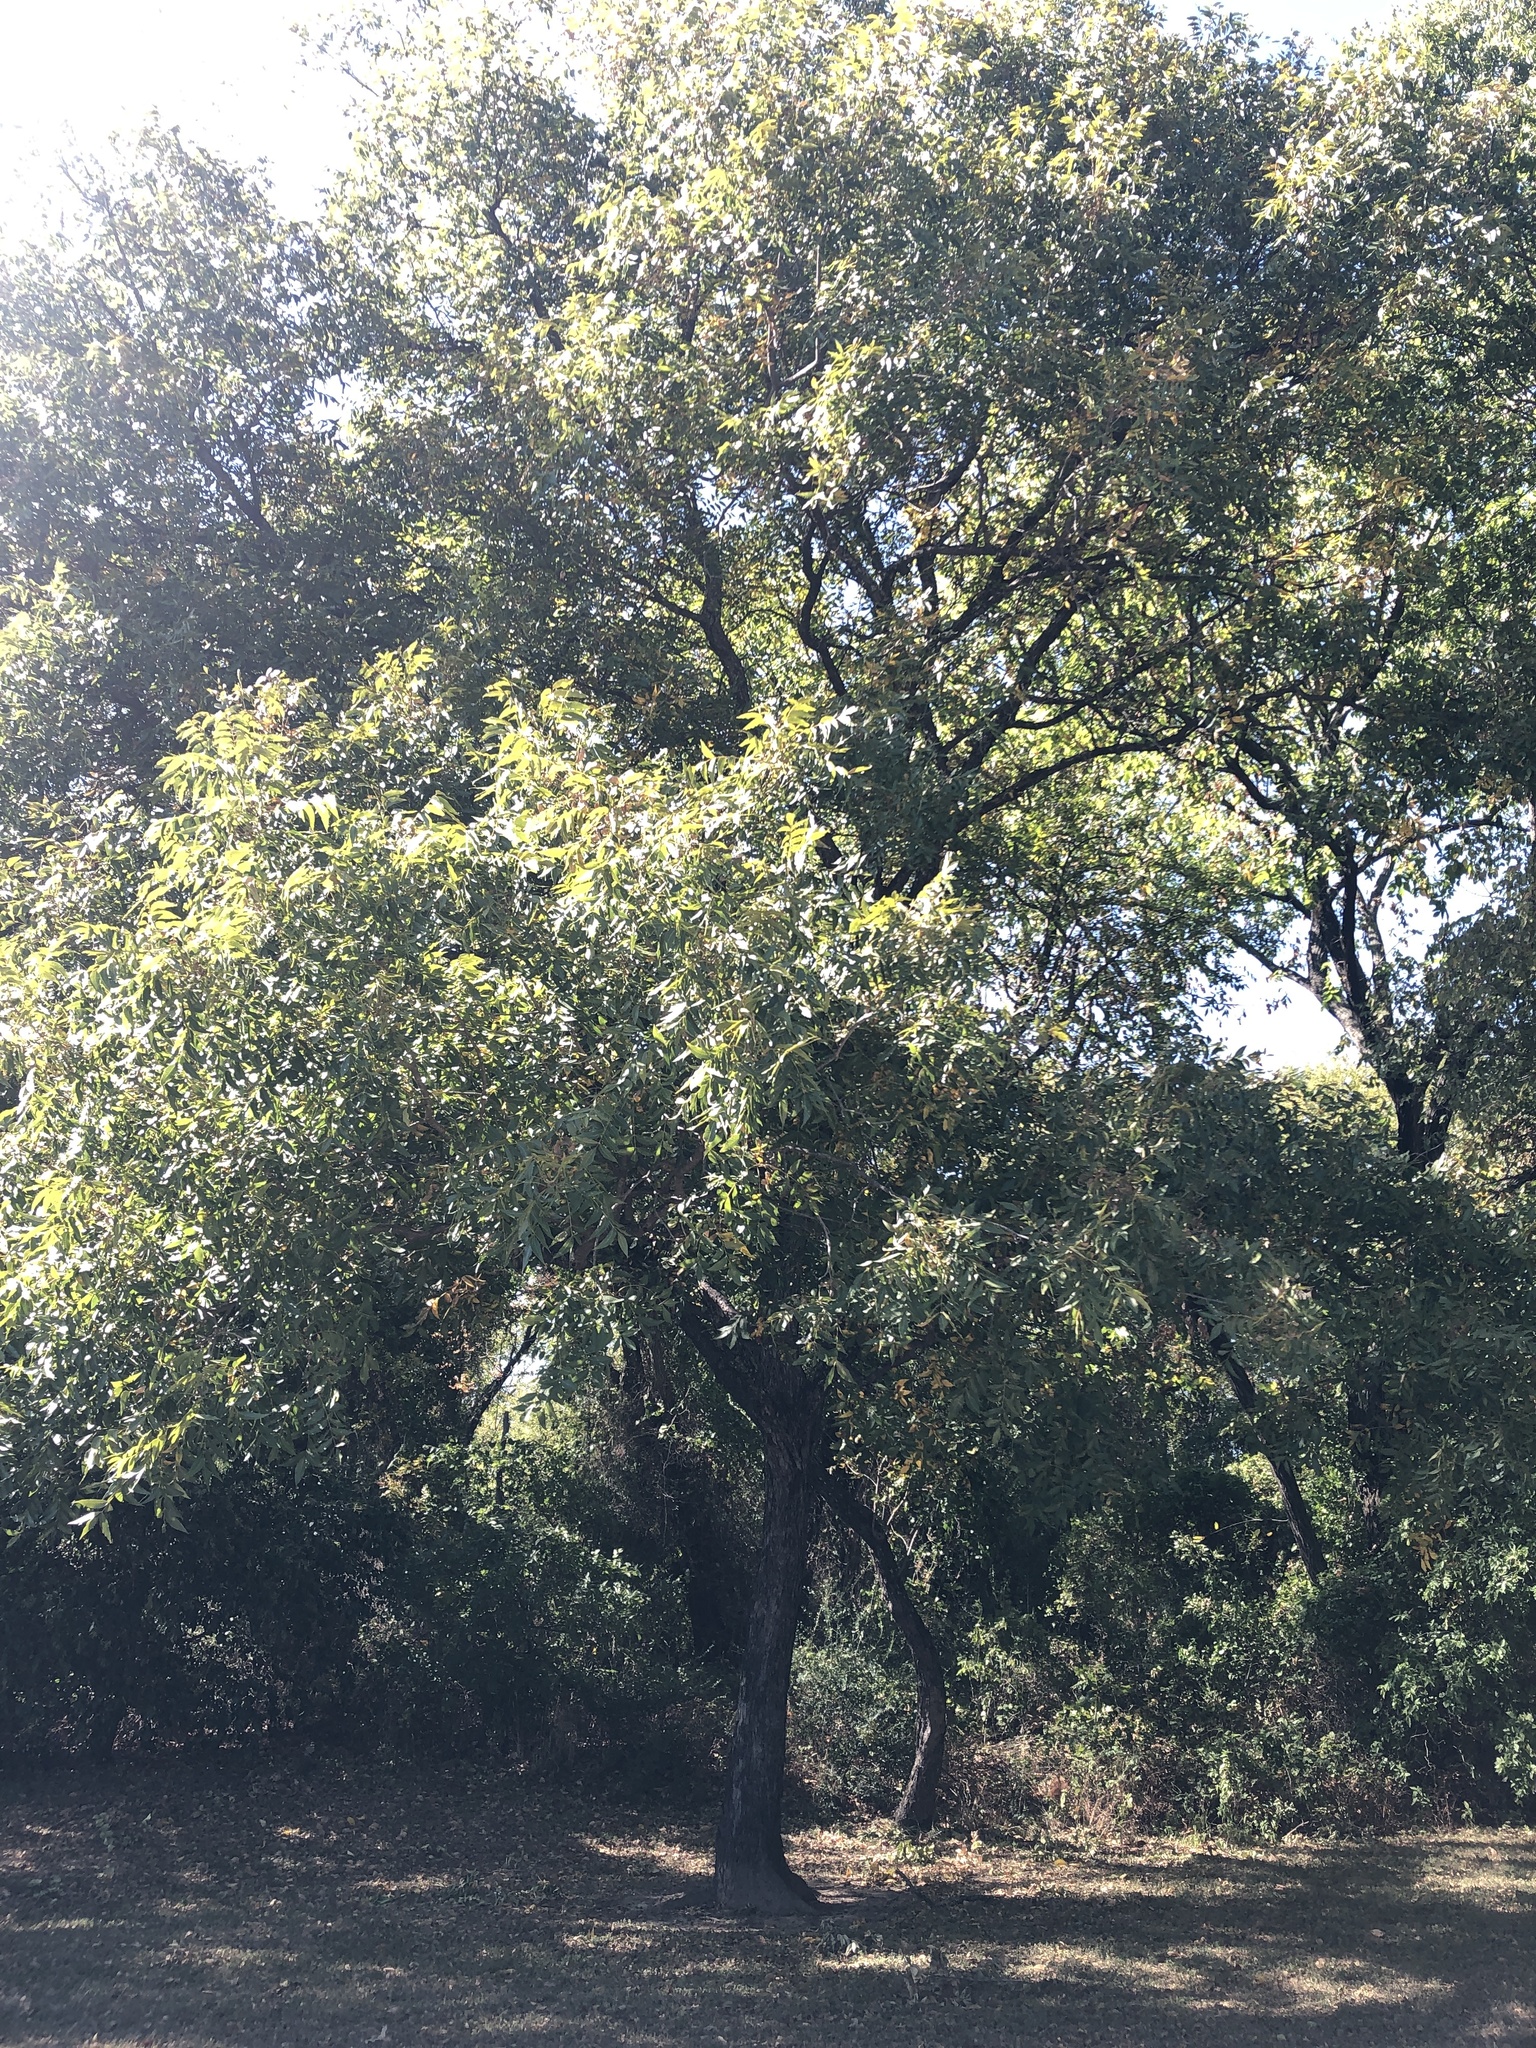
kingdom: Plantae
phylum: Tracheophyta
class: Magnoliopsida
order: Fagales
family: Juglandaceae
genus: Carya
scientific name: Carya illinoinensis
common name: Pecan
